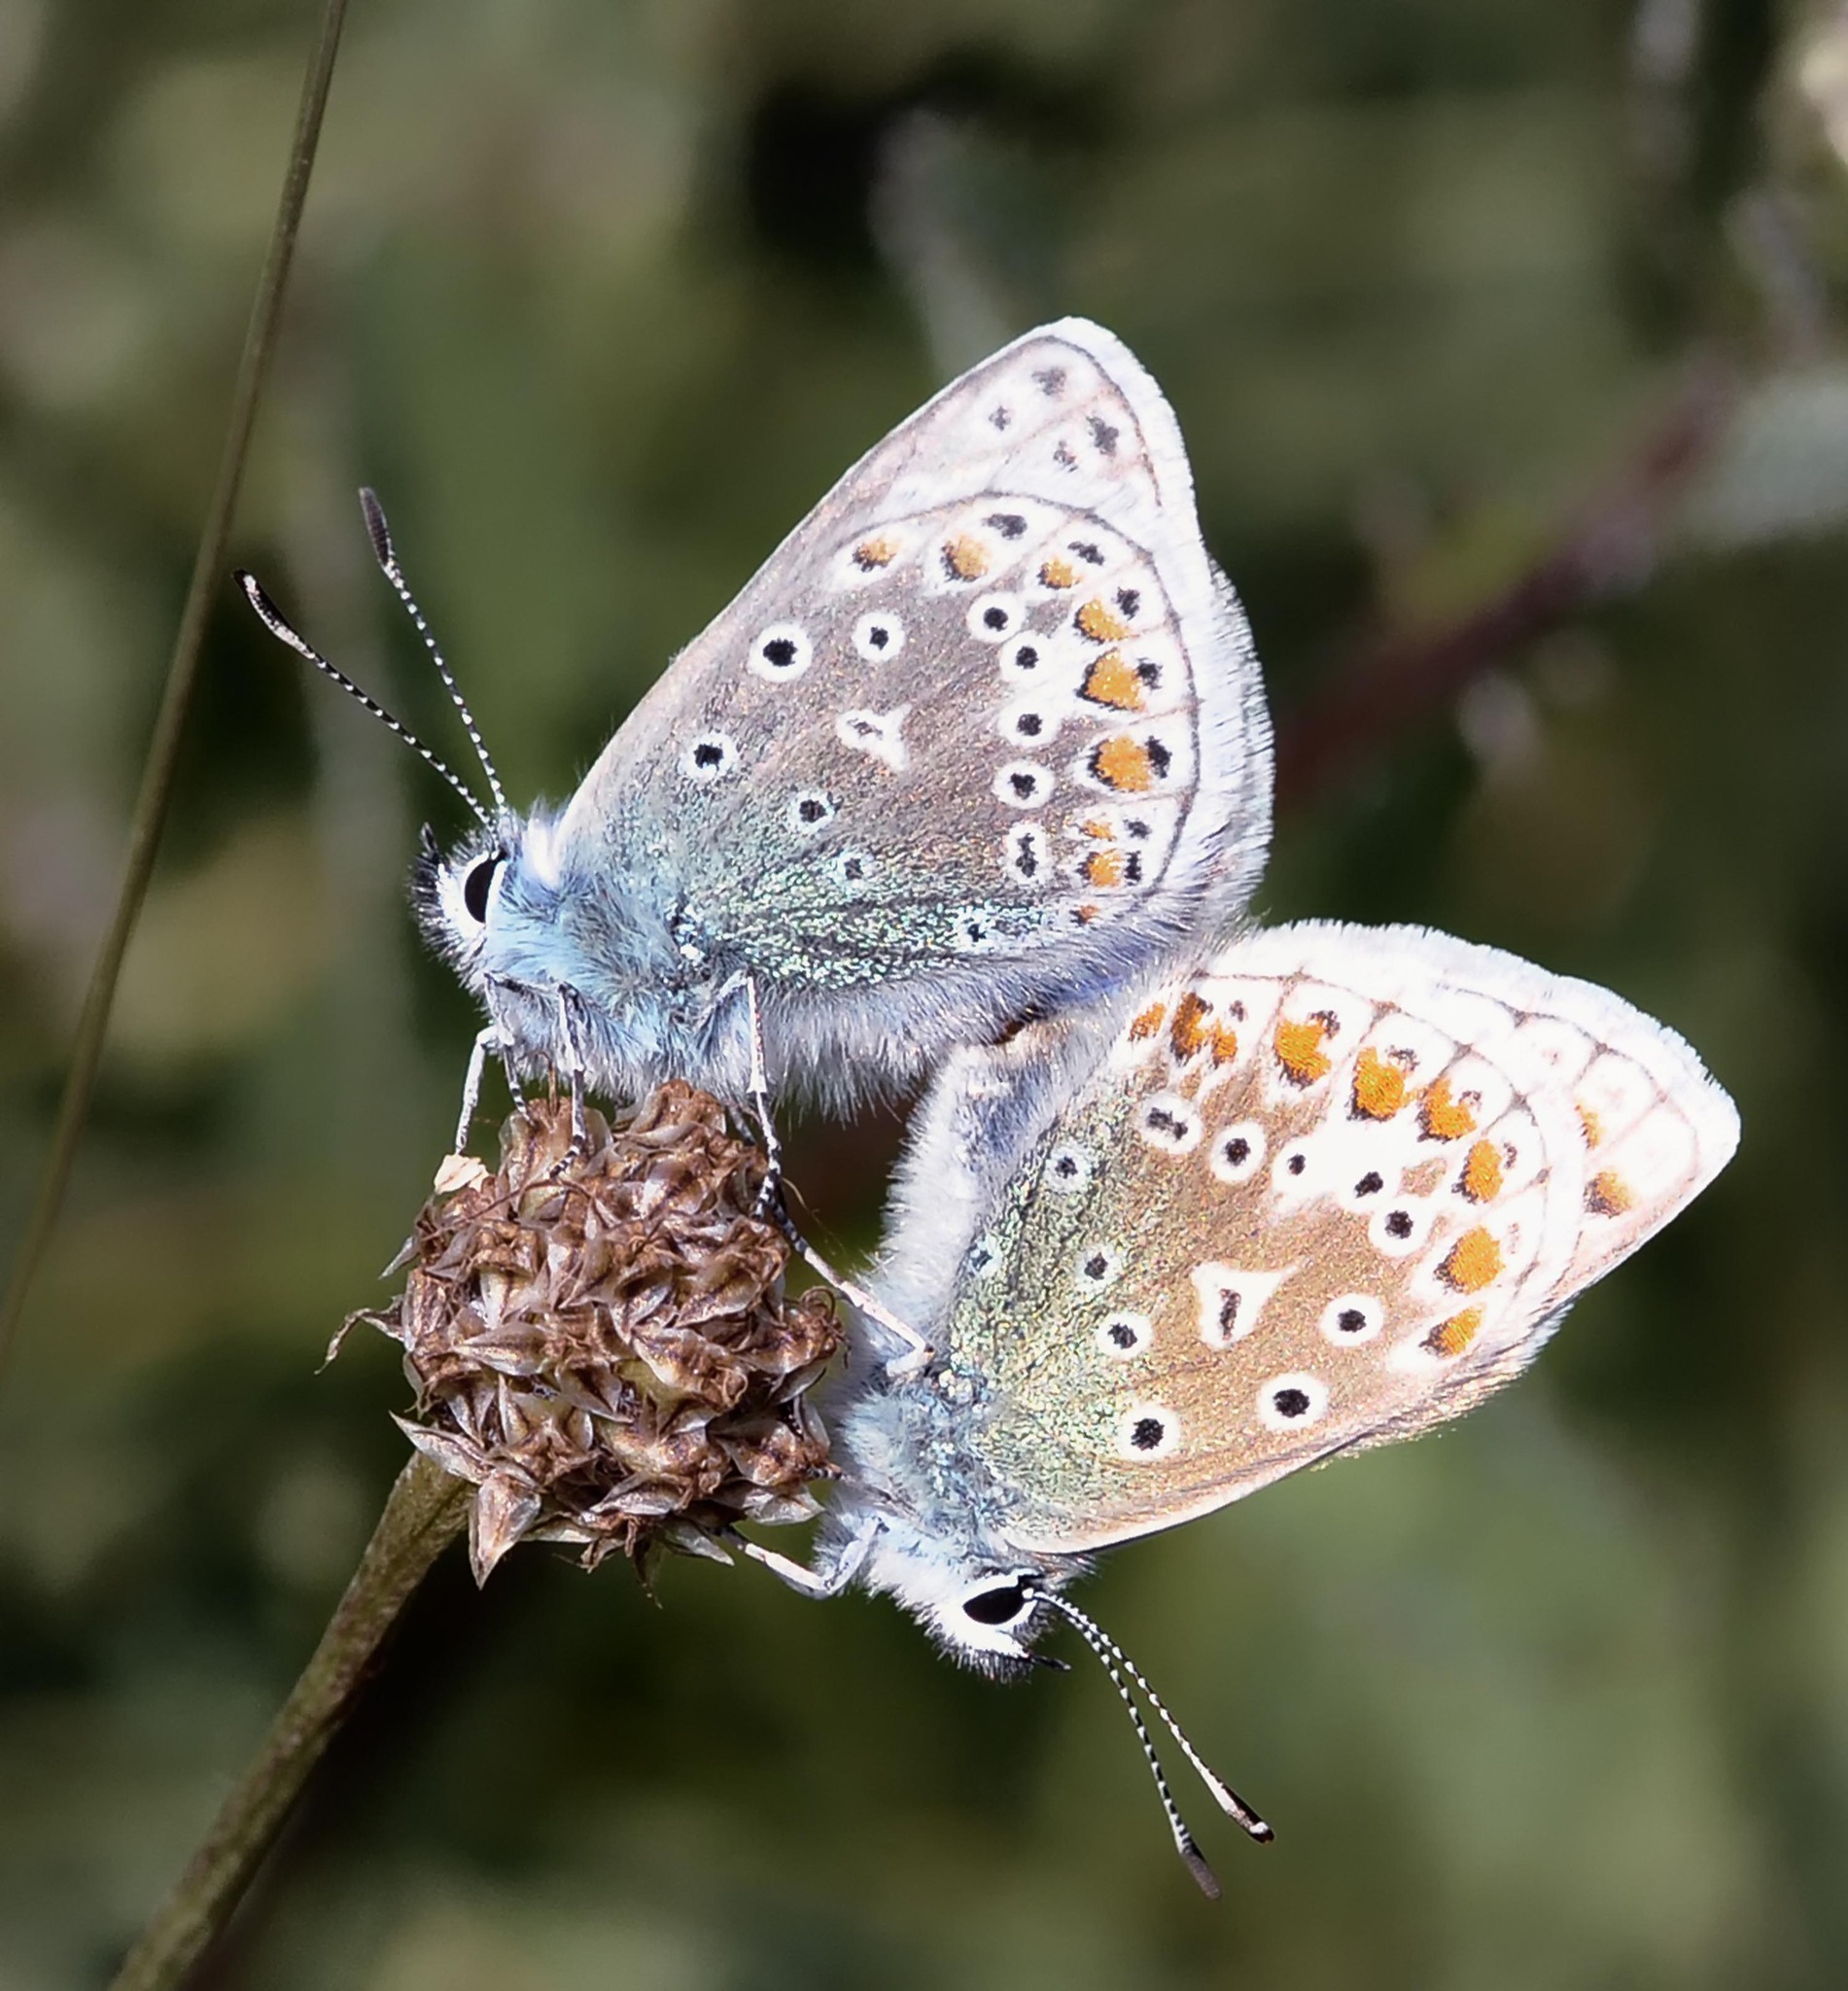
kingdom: Animalia
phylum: Arthropoda
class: Insecta
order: Lepidoptera
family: Lycaenidae
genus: Polyommatus
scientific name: Polyommatus icarus
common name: Common blue
